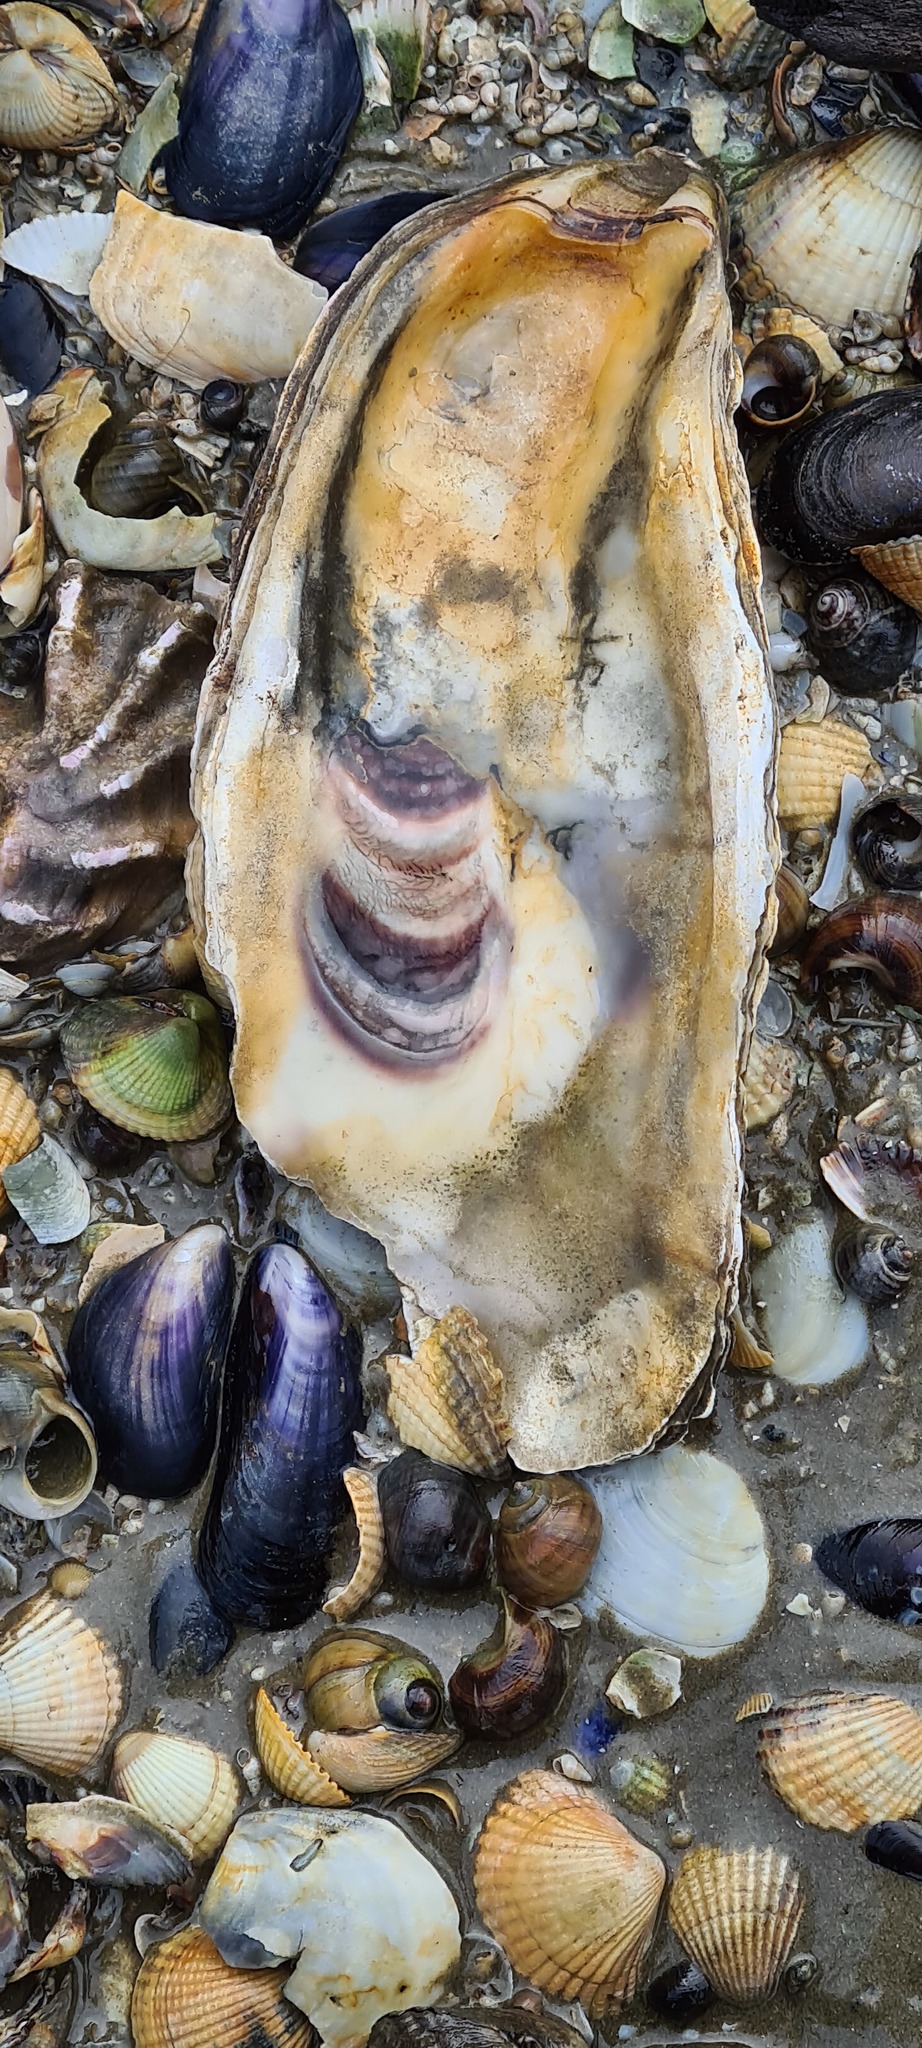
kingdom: Animalia
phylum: Mollusca
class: Bivalvia
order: Ostreida
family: Ostreidae
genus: Magallana
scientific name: Magallana gigas
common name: Pacific oyster
